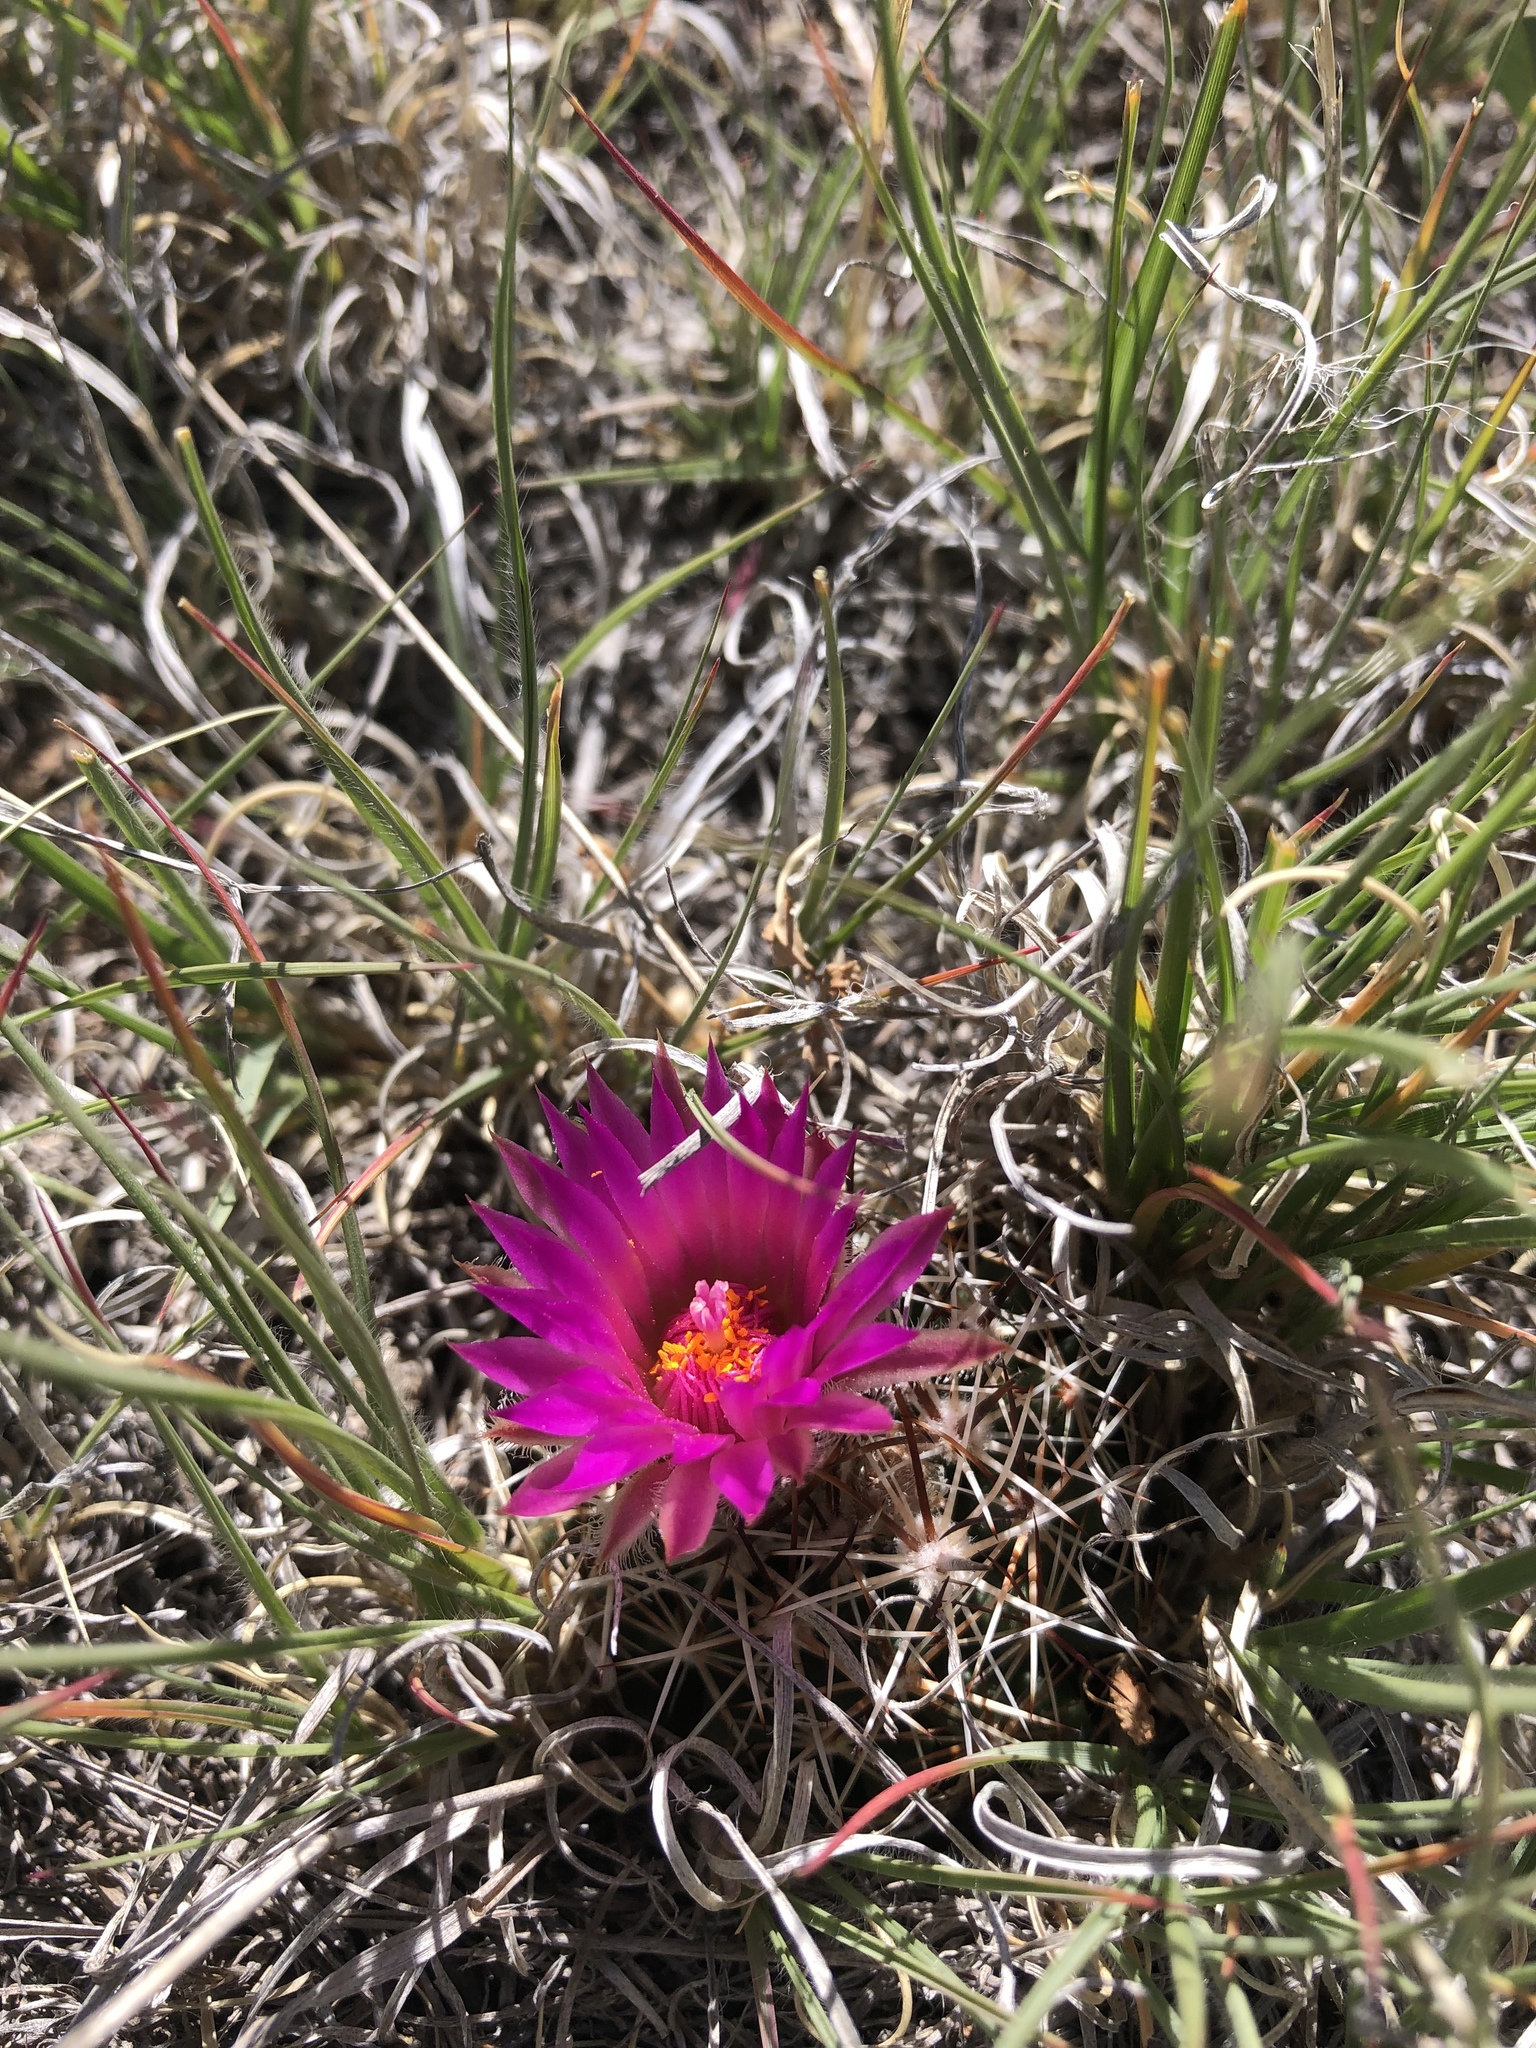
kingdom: Plantae
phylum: Tracheophyta
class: Magnoliopsida
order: Caryophyllales
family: Cactaceae
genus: Pelecyphora
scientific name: Pelecyphora vivipara
